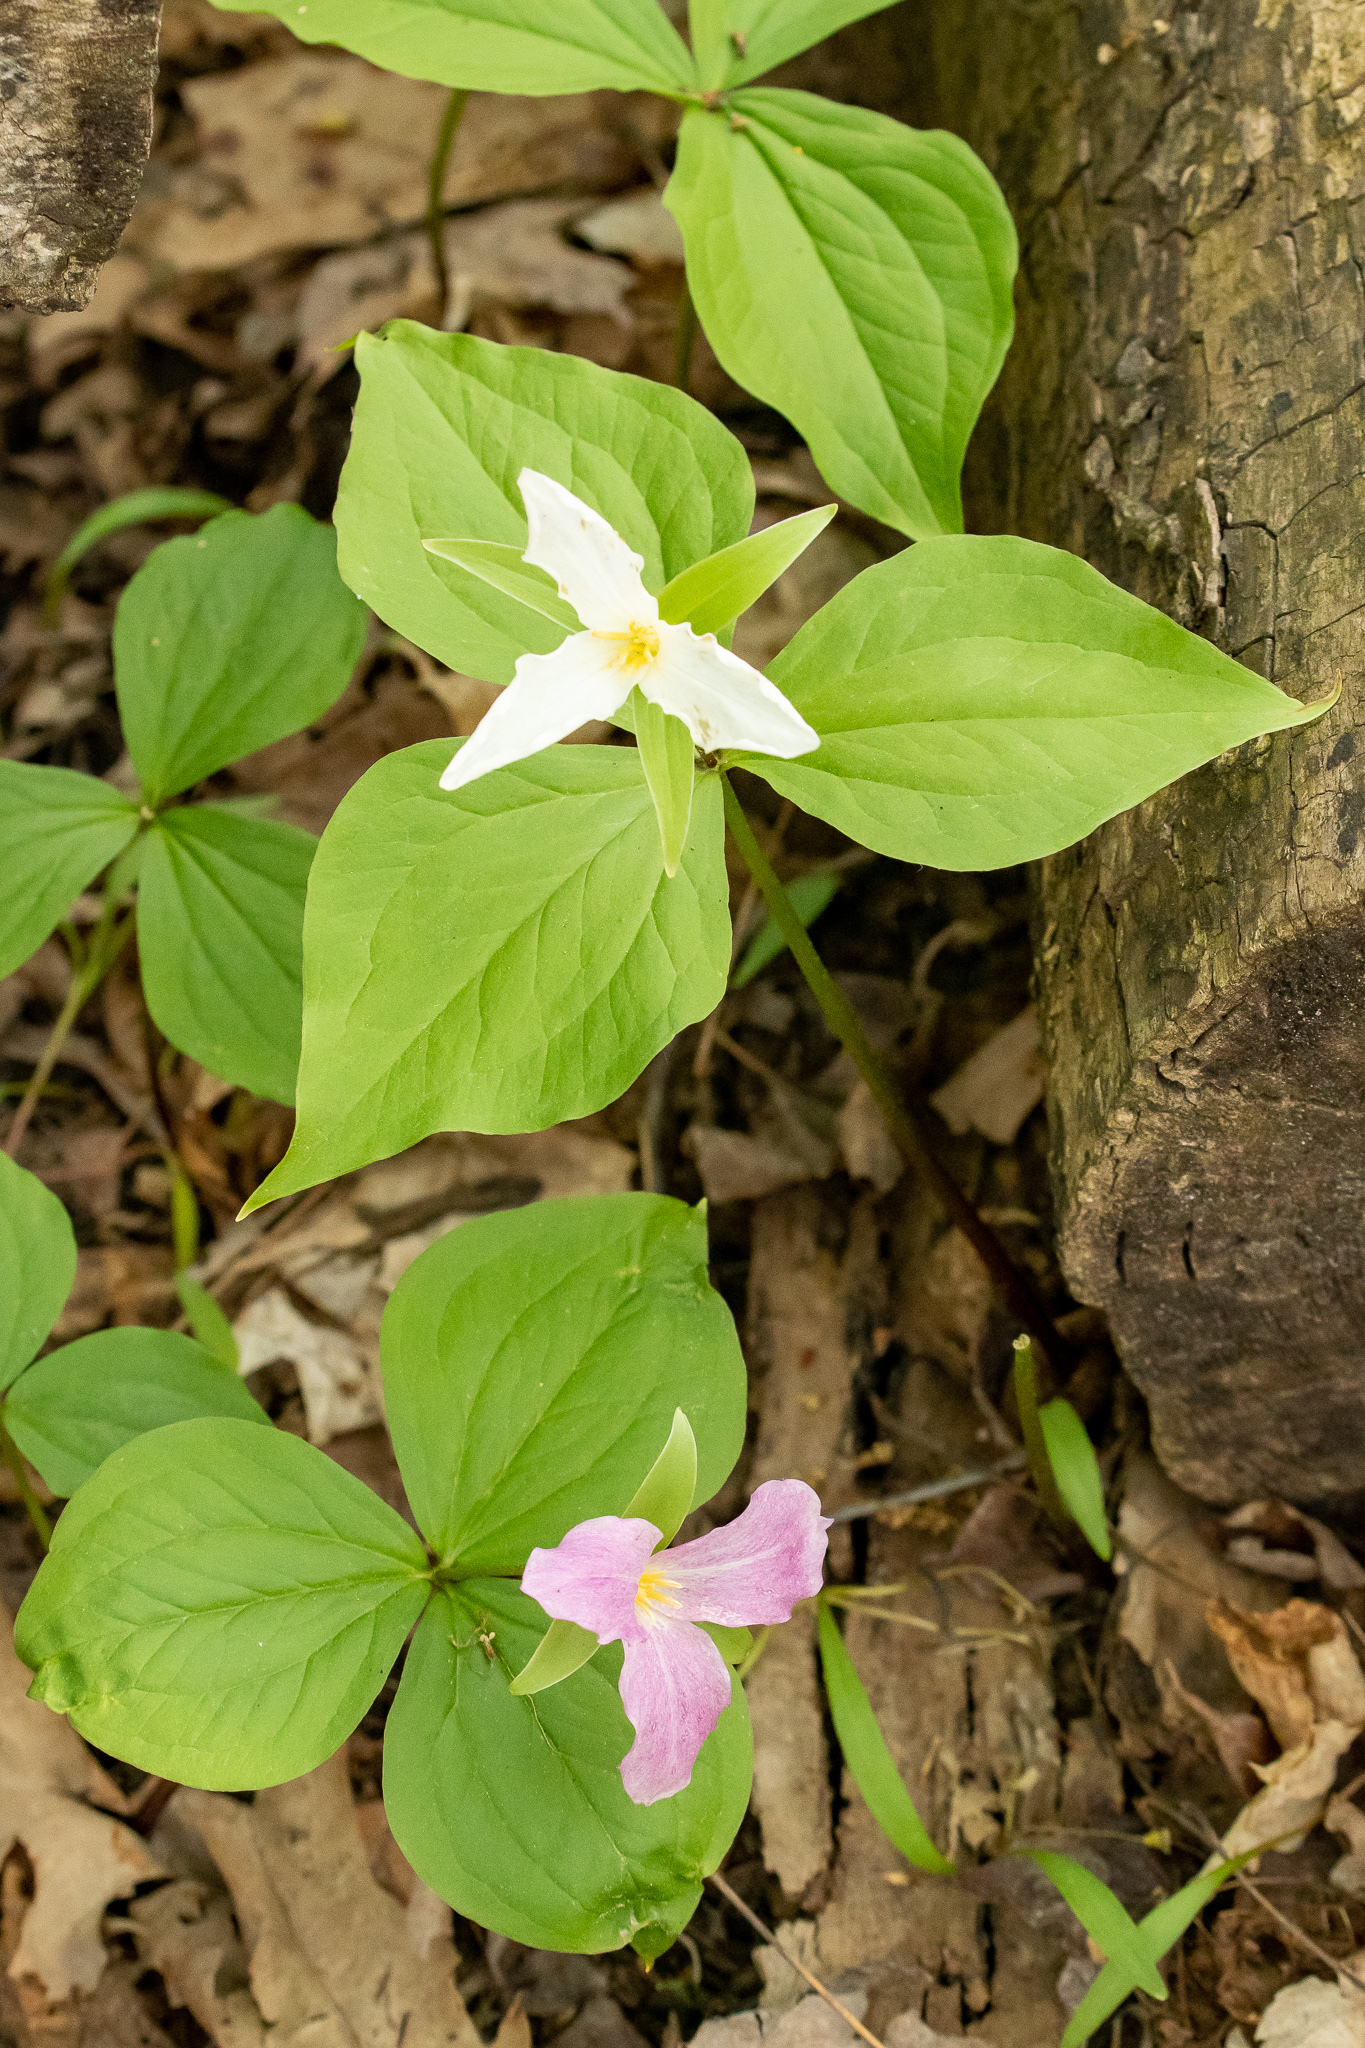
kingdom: Plantae
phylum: Tracheophyta
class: Liliopsida
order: Liliales
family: Melanthiaceae
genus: Trillium
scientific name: Trillium grandiflorum
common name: Great white trillium
